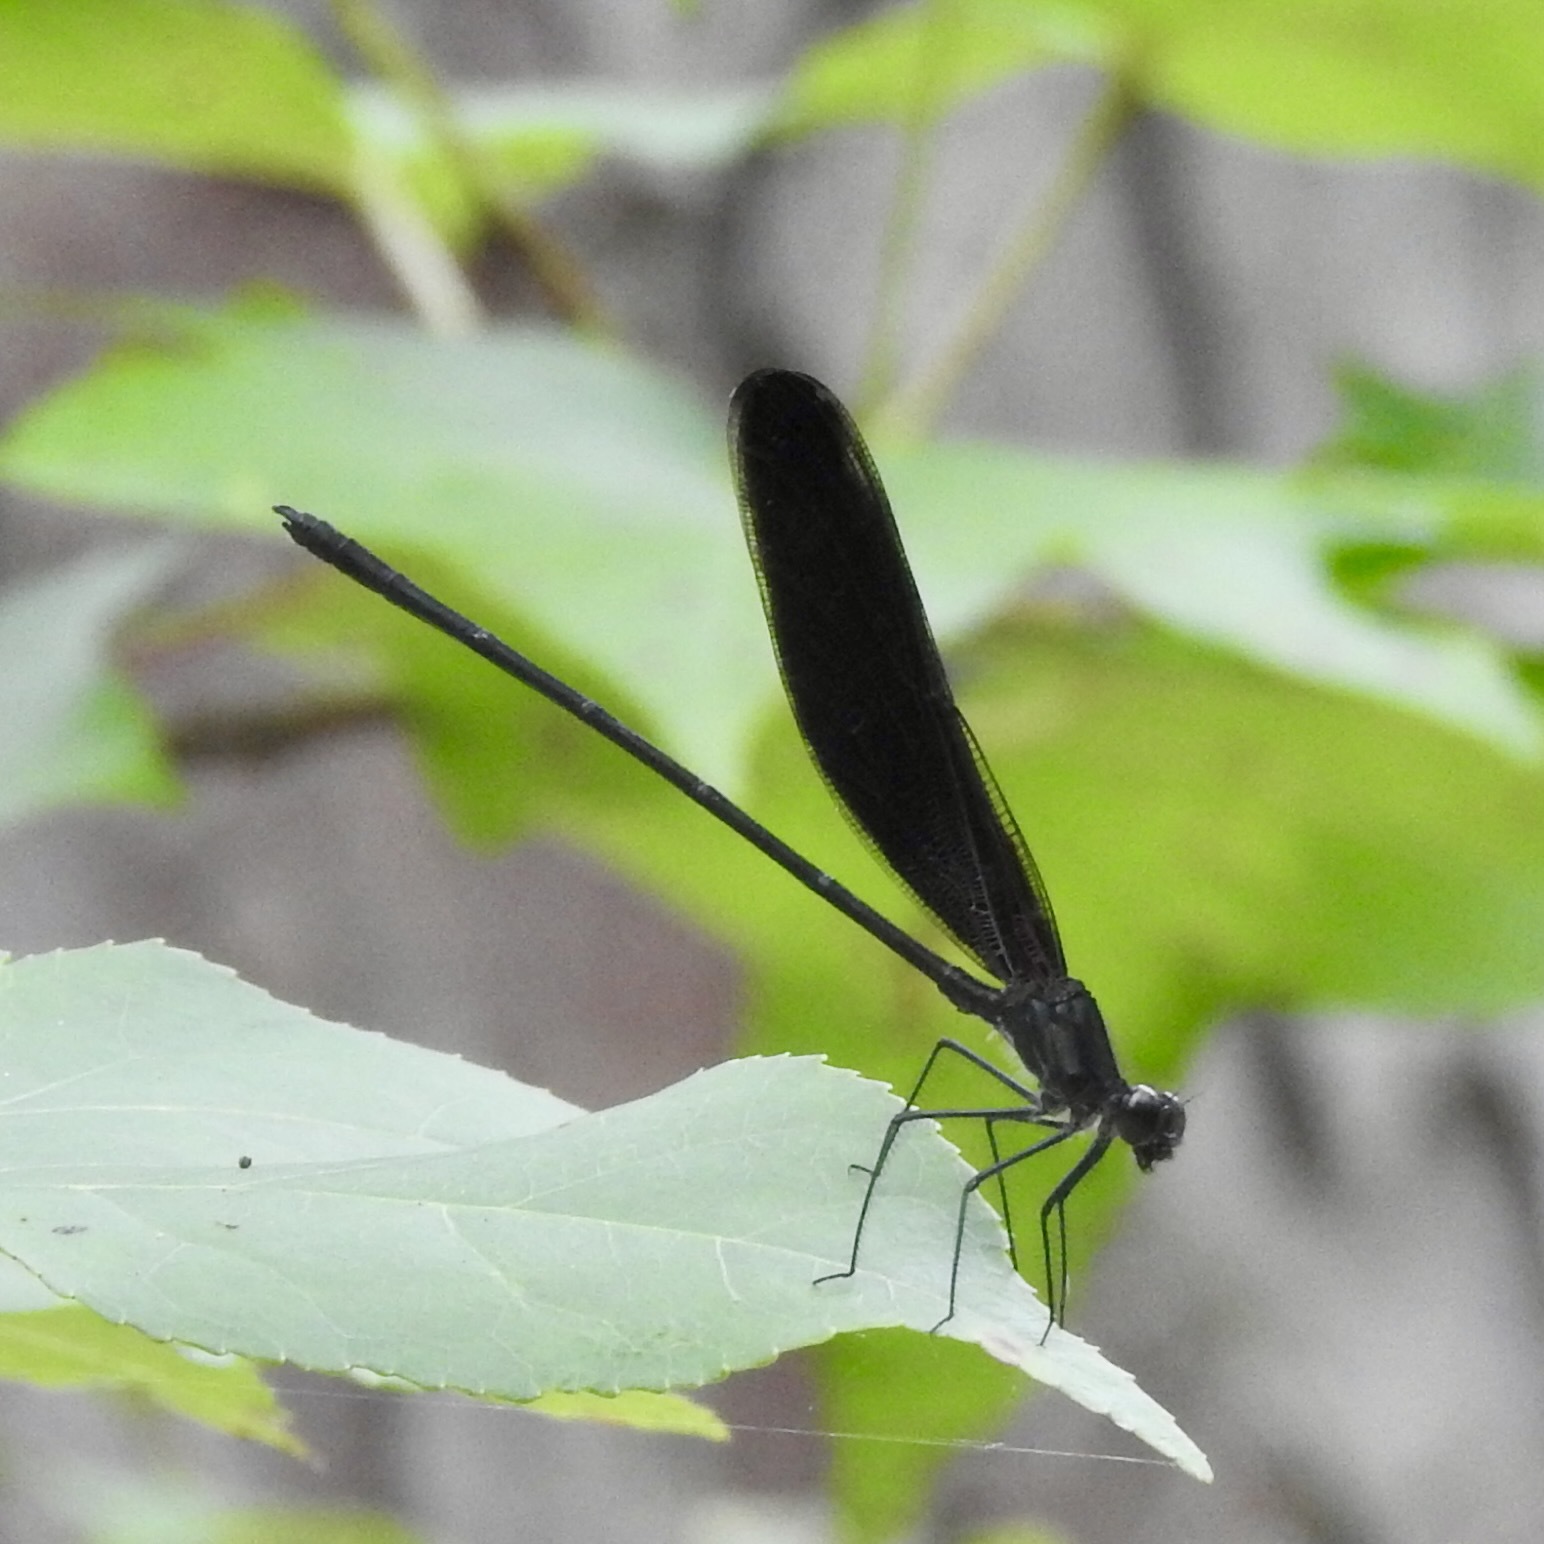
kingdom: Animalia
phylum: Arthropoda
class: Insecta
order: Odonata
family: Calopterygidae
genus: Hetaerina
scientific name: Hetaerina titia
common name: Smoky rubyspot
